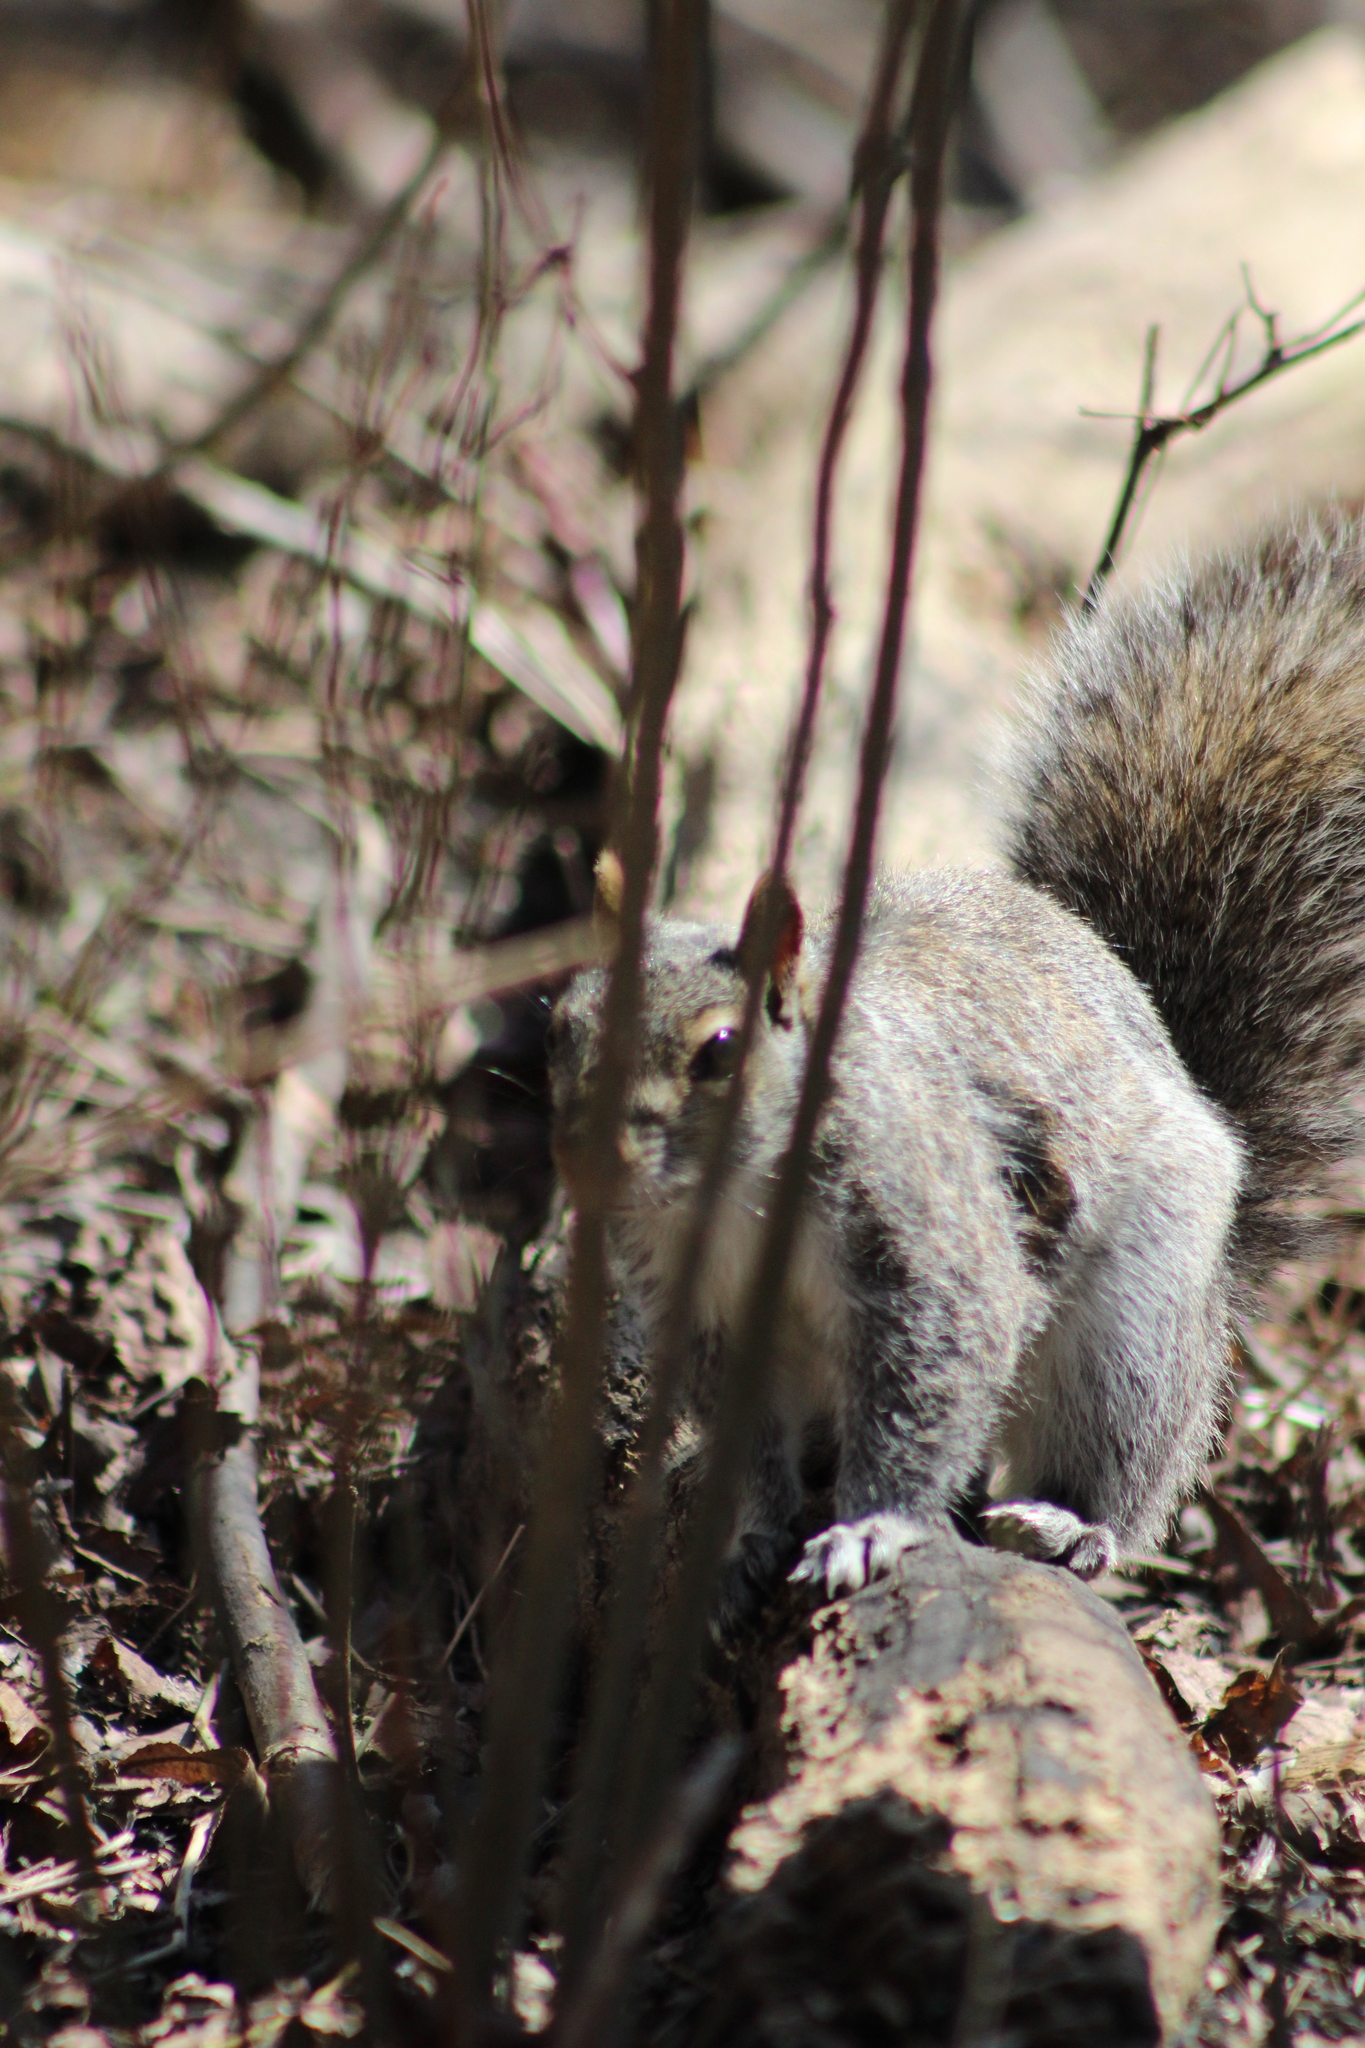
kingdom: Animalia
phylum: Chordata
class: Mammalia
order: Rodentia
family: Sciuridae
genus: Sciurus
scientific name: Sciurus carolinensis
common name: Eastern gray squirrel
